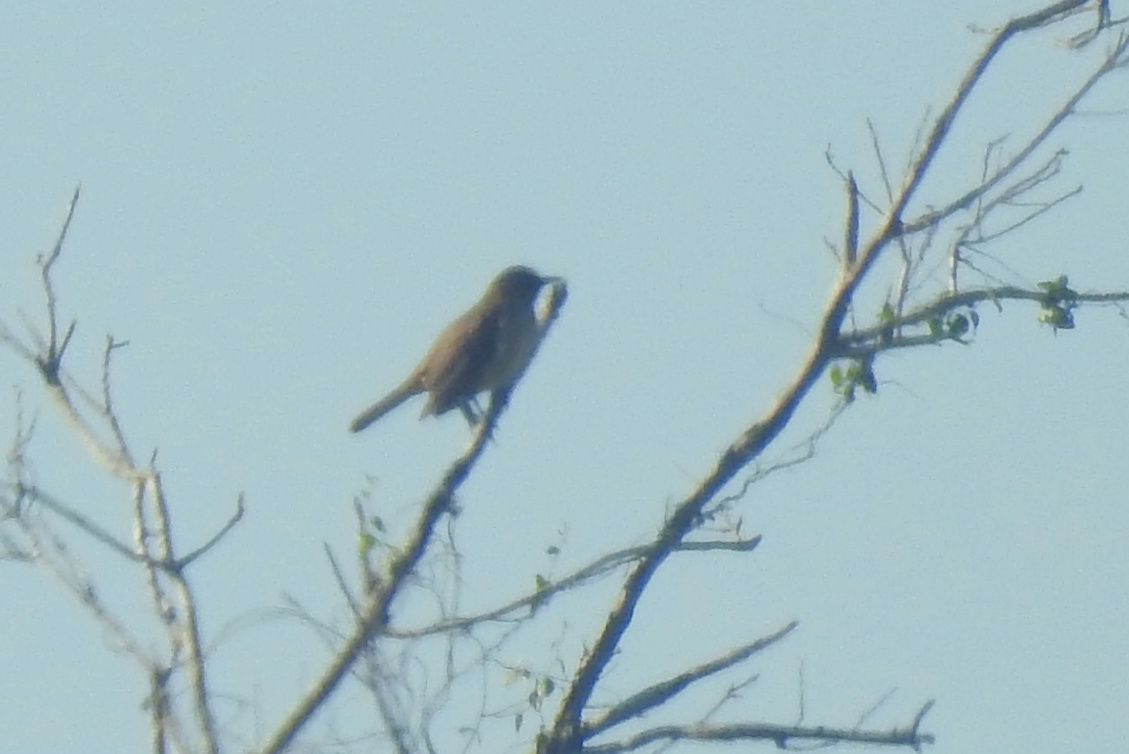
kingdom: Animalia
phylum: Chordata
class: Aves
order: Passeriformes
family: Turdidae
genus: Turdus
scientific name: Turdus grayi
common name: Clay-colored thrush
